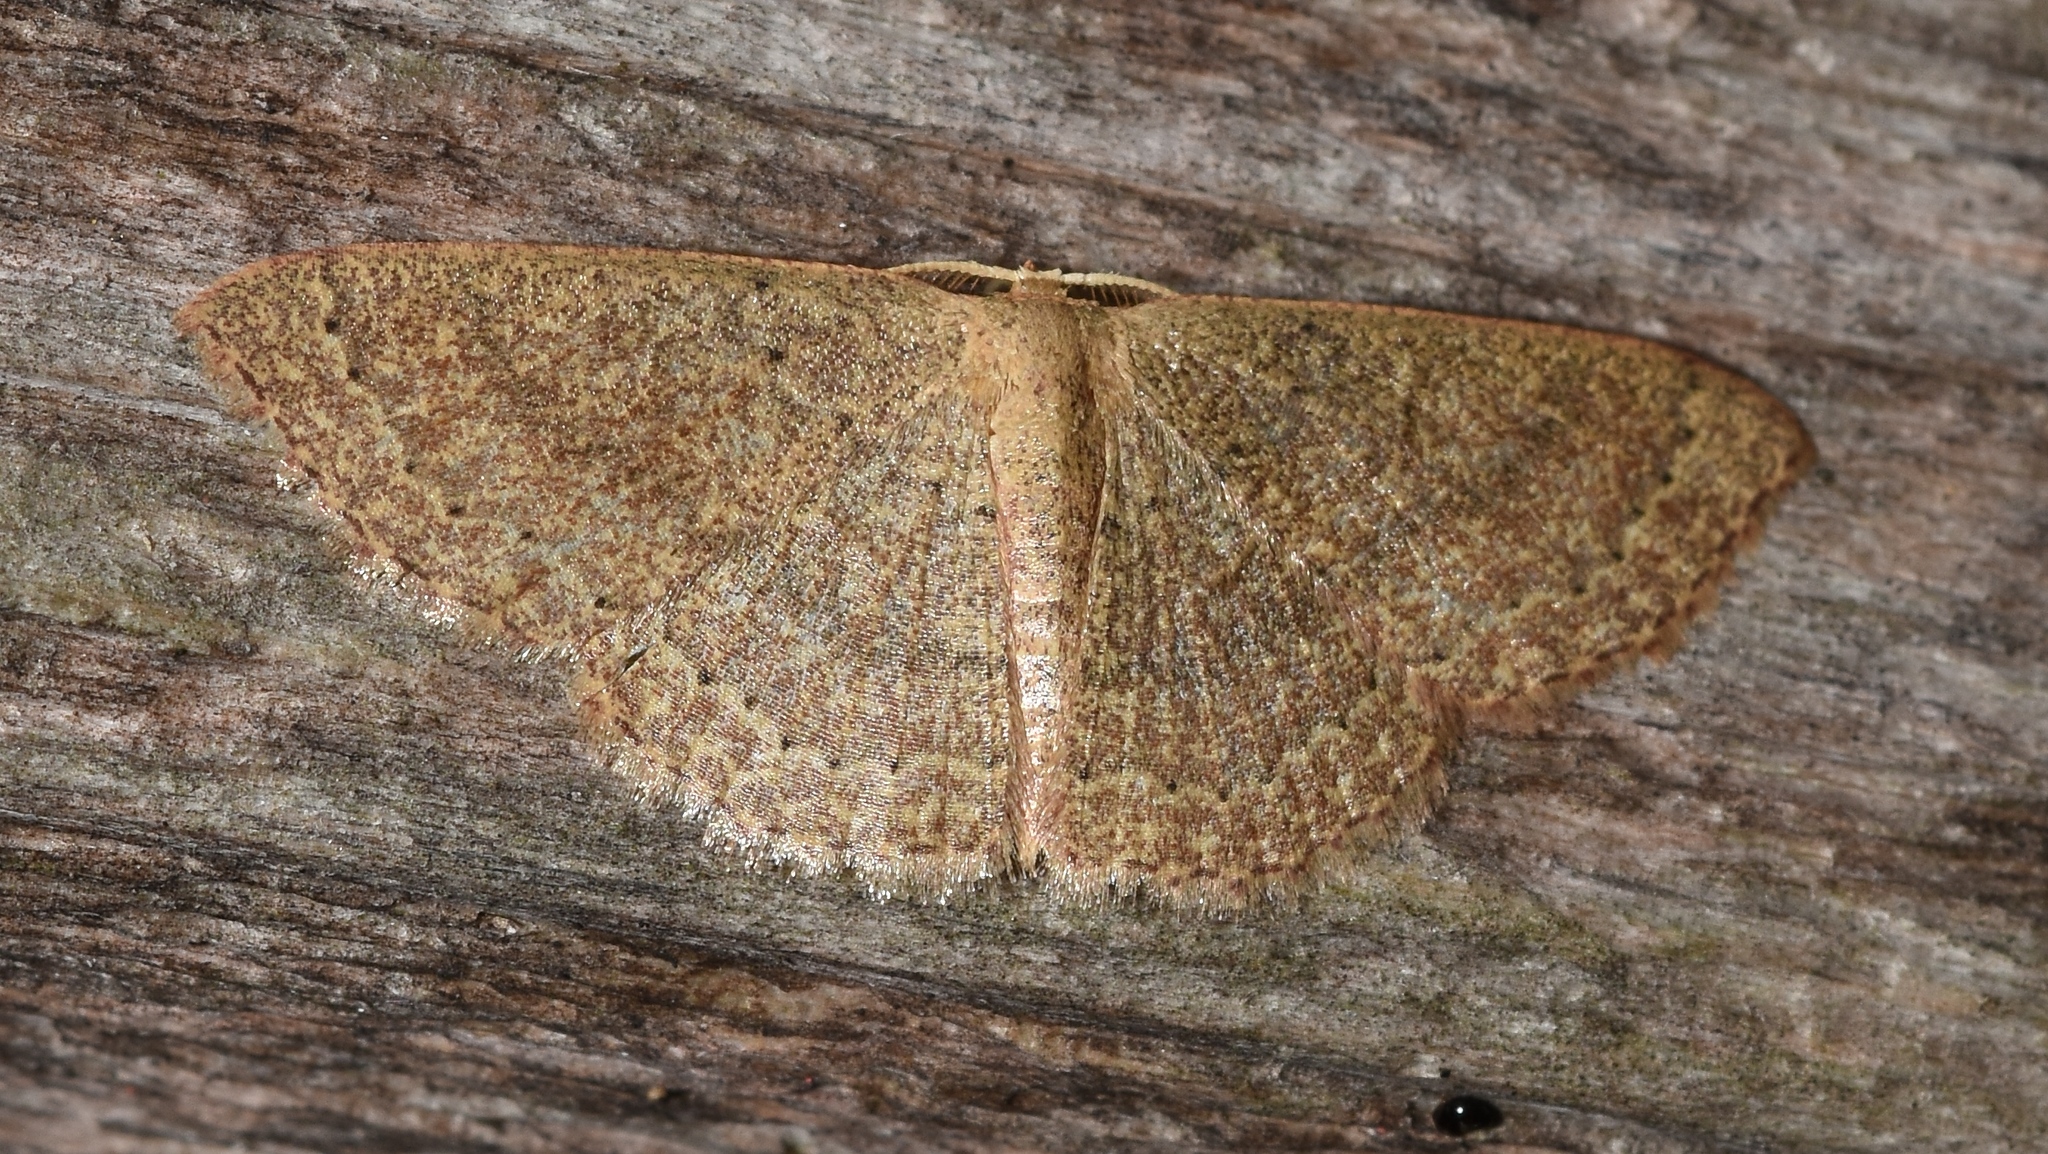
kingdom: Animalia
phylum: Arthropoda
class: Insecta
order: Lepidoptera
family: Geometridae
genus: Pleuroprucha
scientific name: Pleuroprucha insulsaria
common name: Common tan wave
